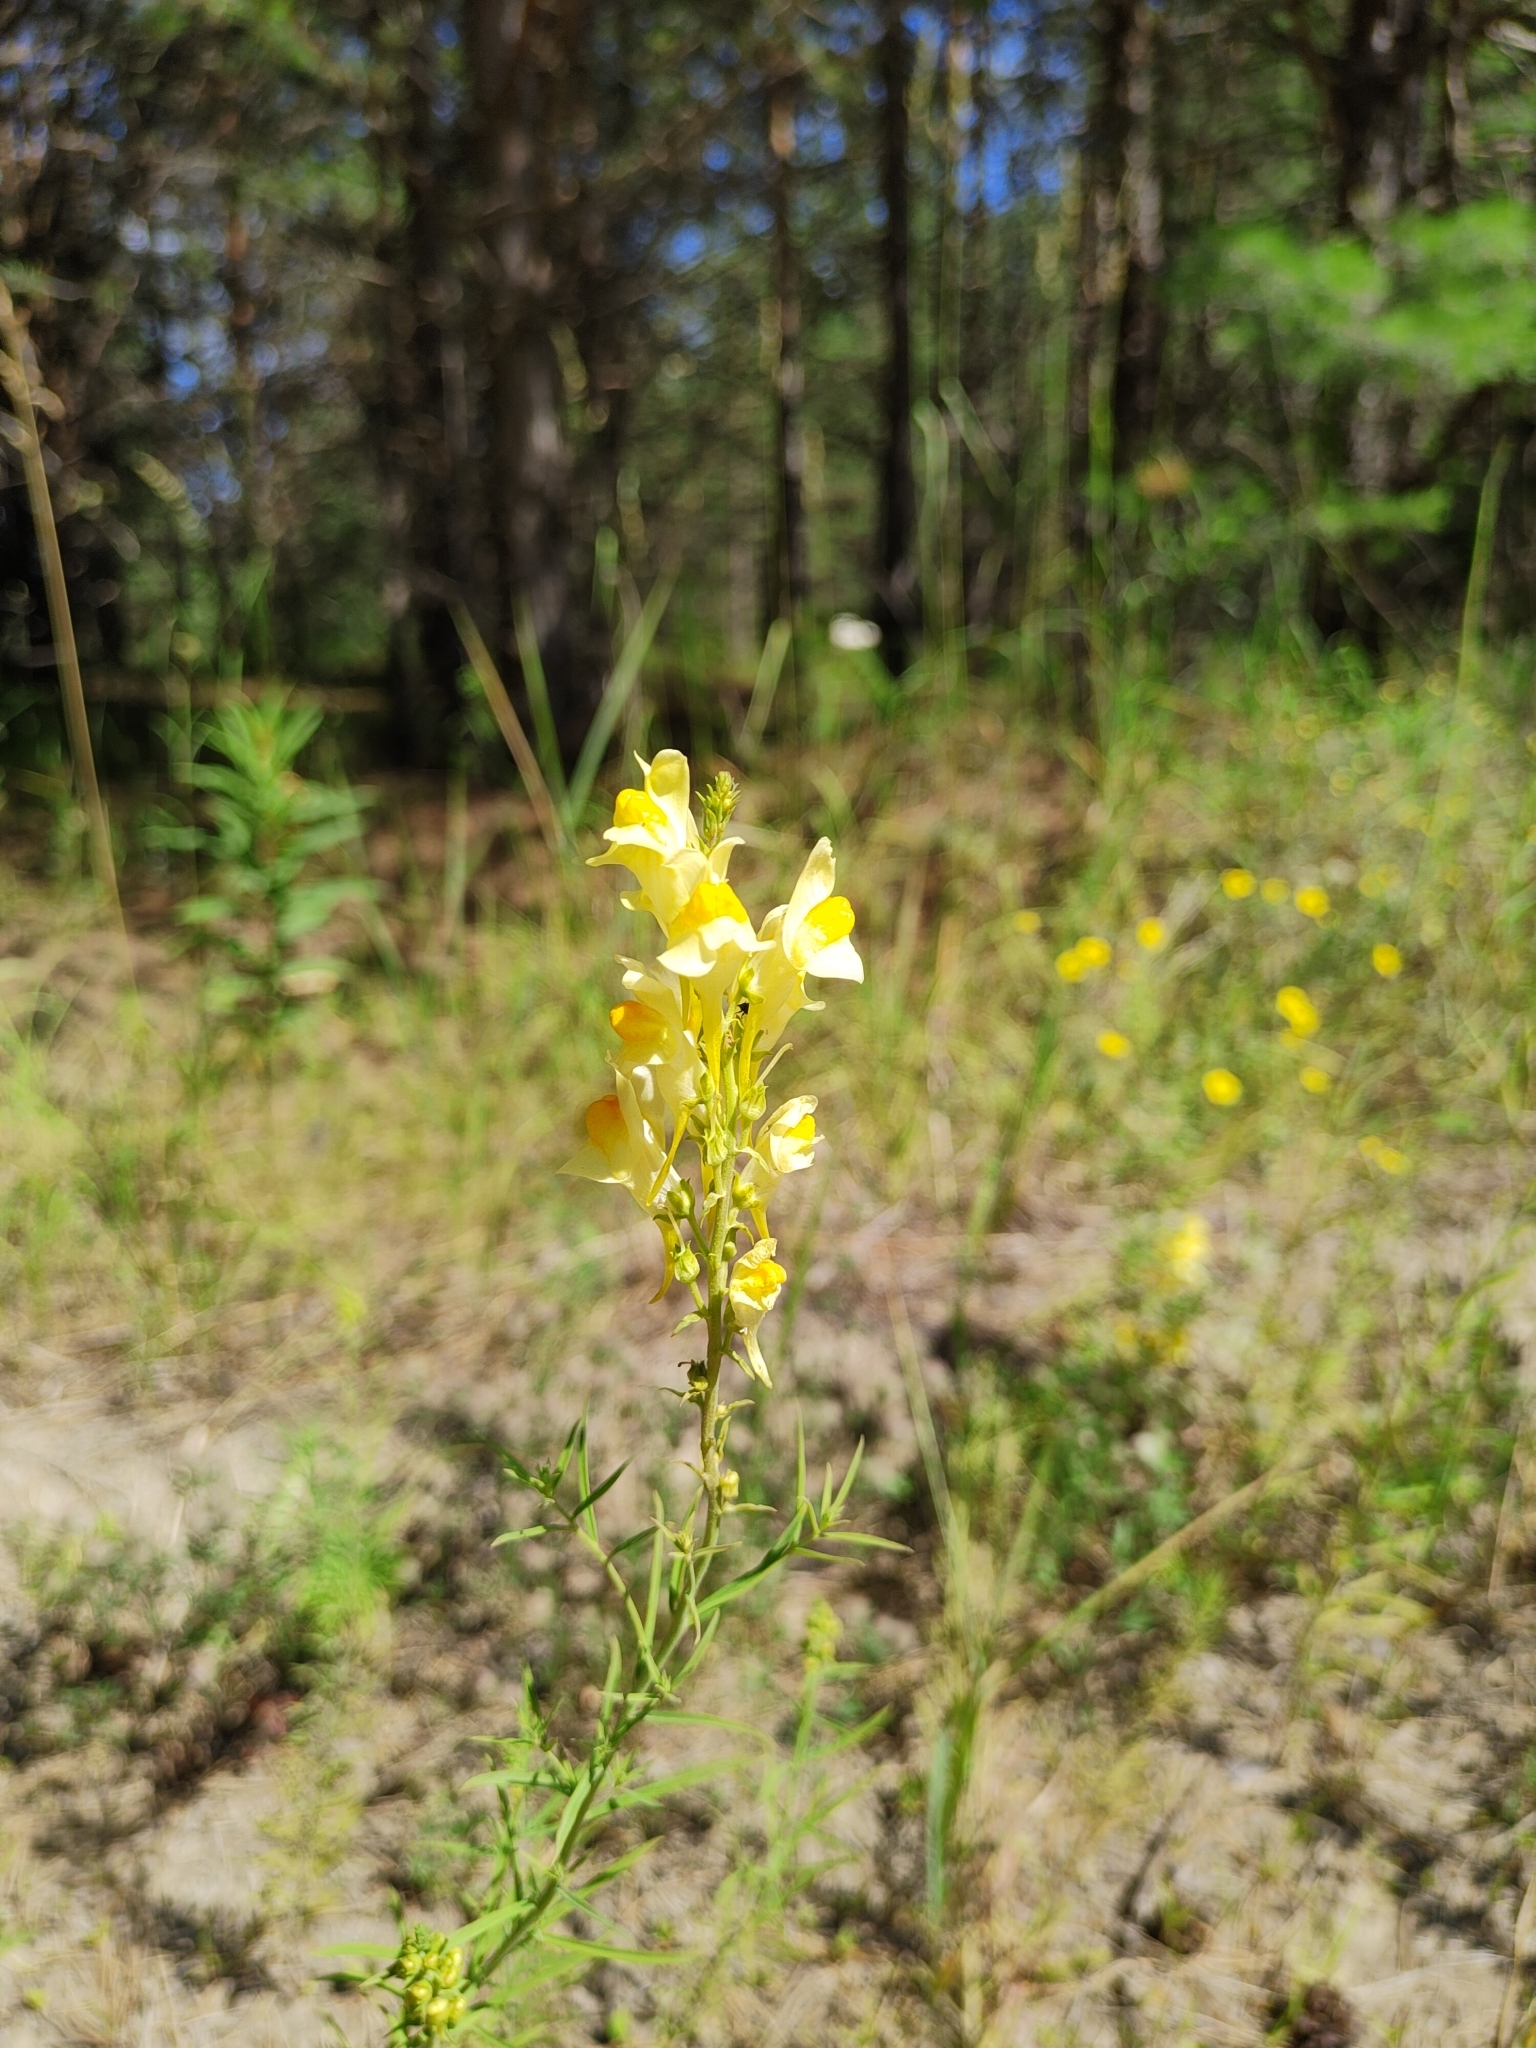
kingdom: Plantae
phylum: Tracheophyta
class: Magnoliopsida
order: Lamiales
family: Plantaginaceae
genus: Linaria
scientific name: Linaria vulgaris
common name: Butter and eggs
